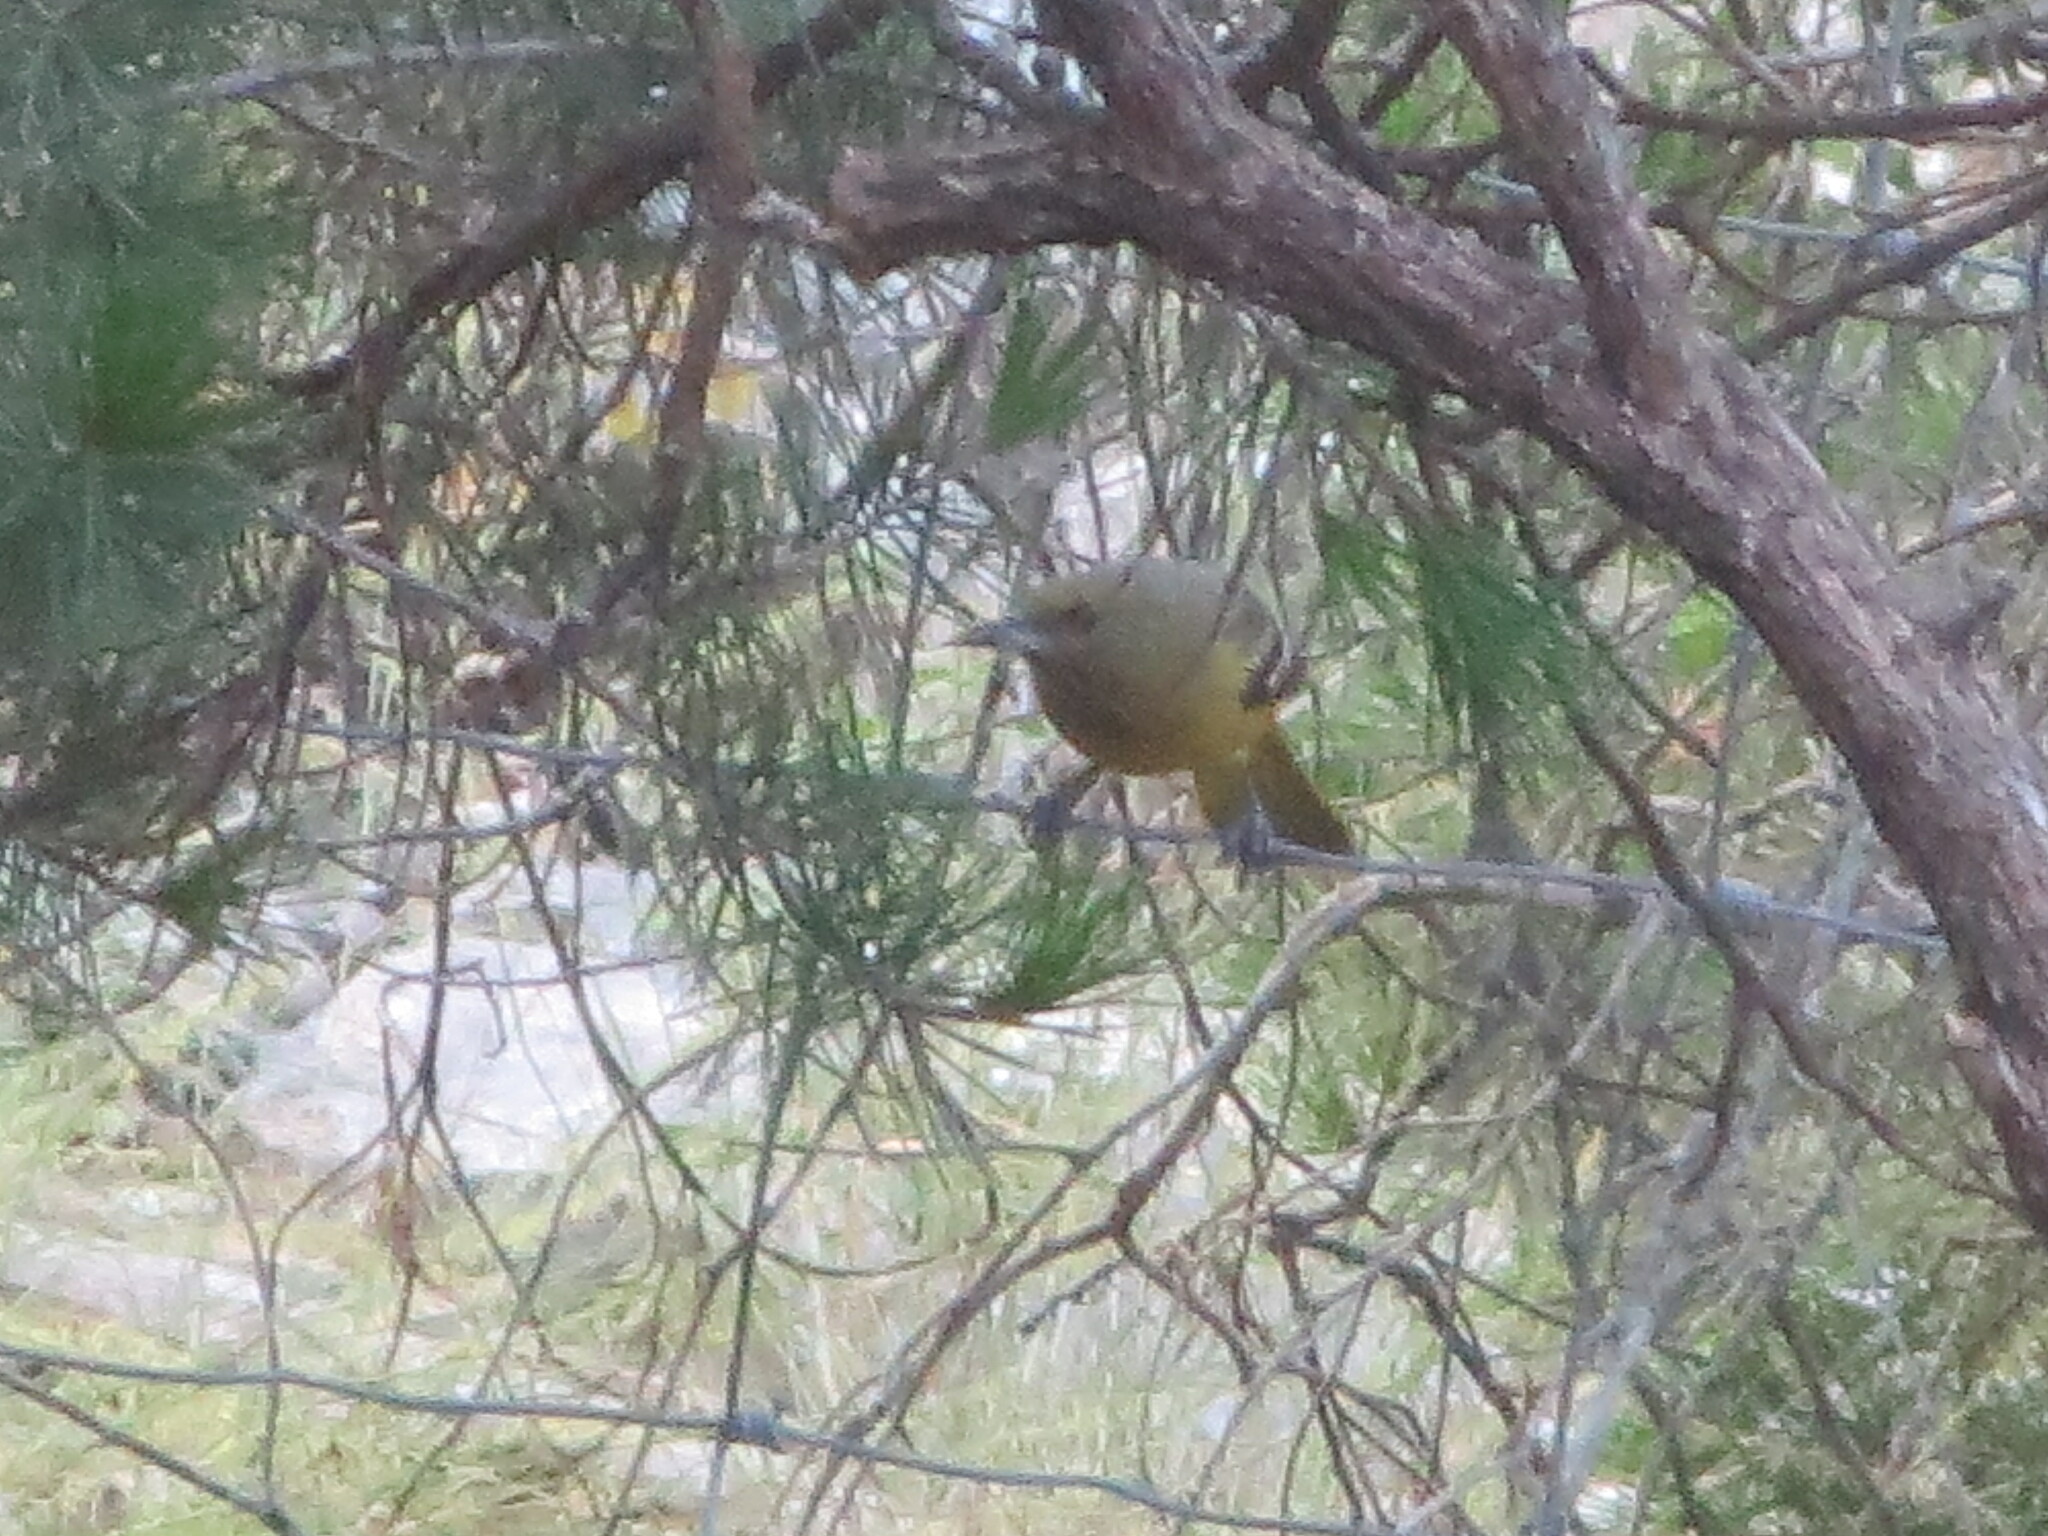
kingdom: Animalia
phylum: Chordata
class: Aves
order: Passeriformes
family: Icteridae
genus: Icterus
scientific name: Icterus parisorum
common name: Scott's oriole
